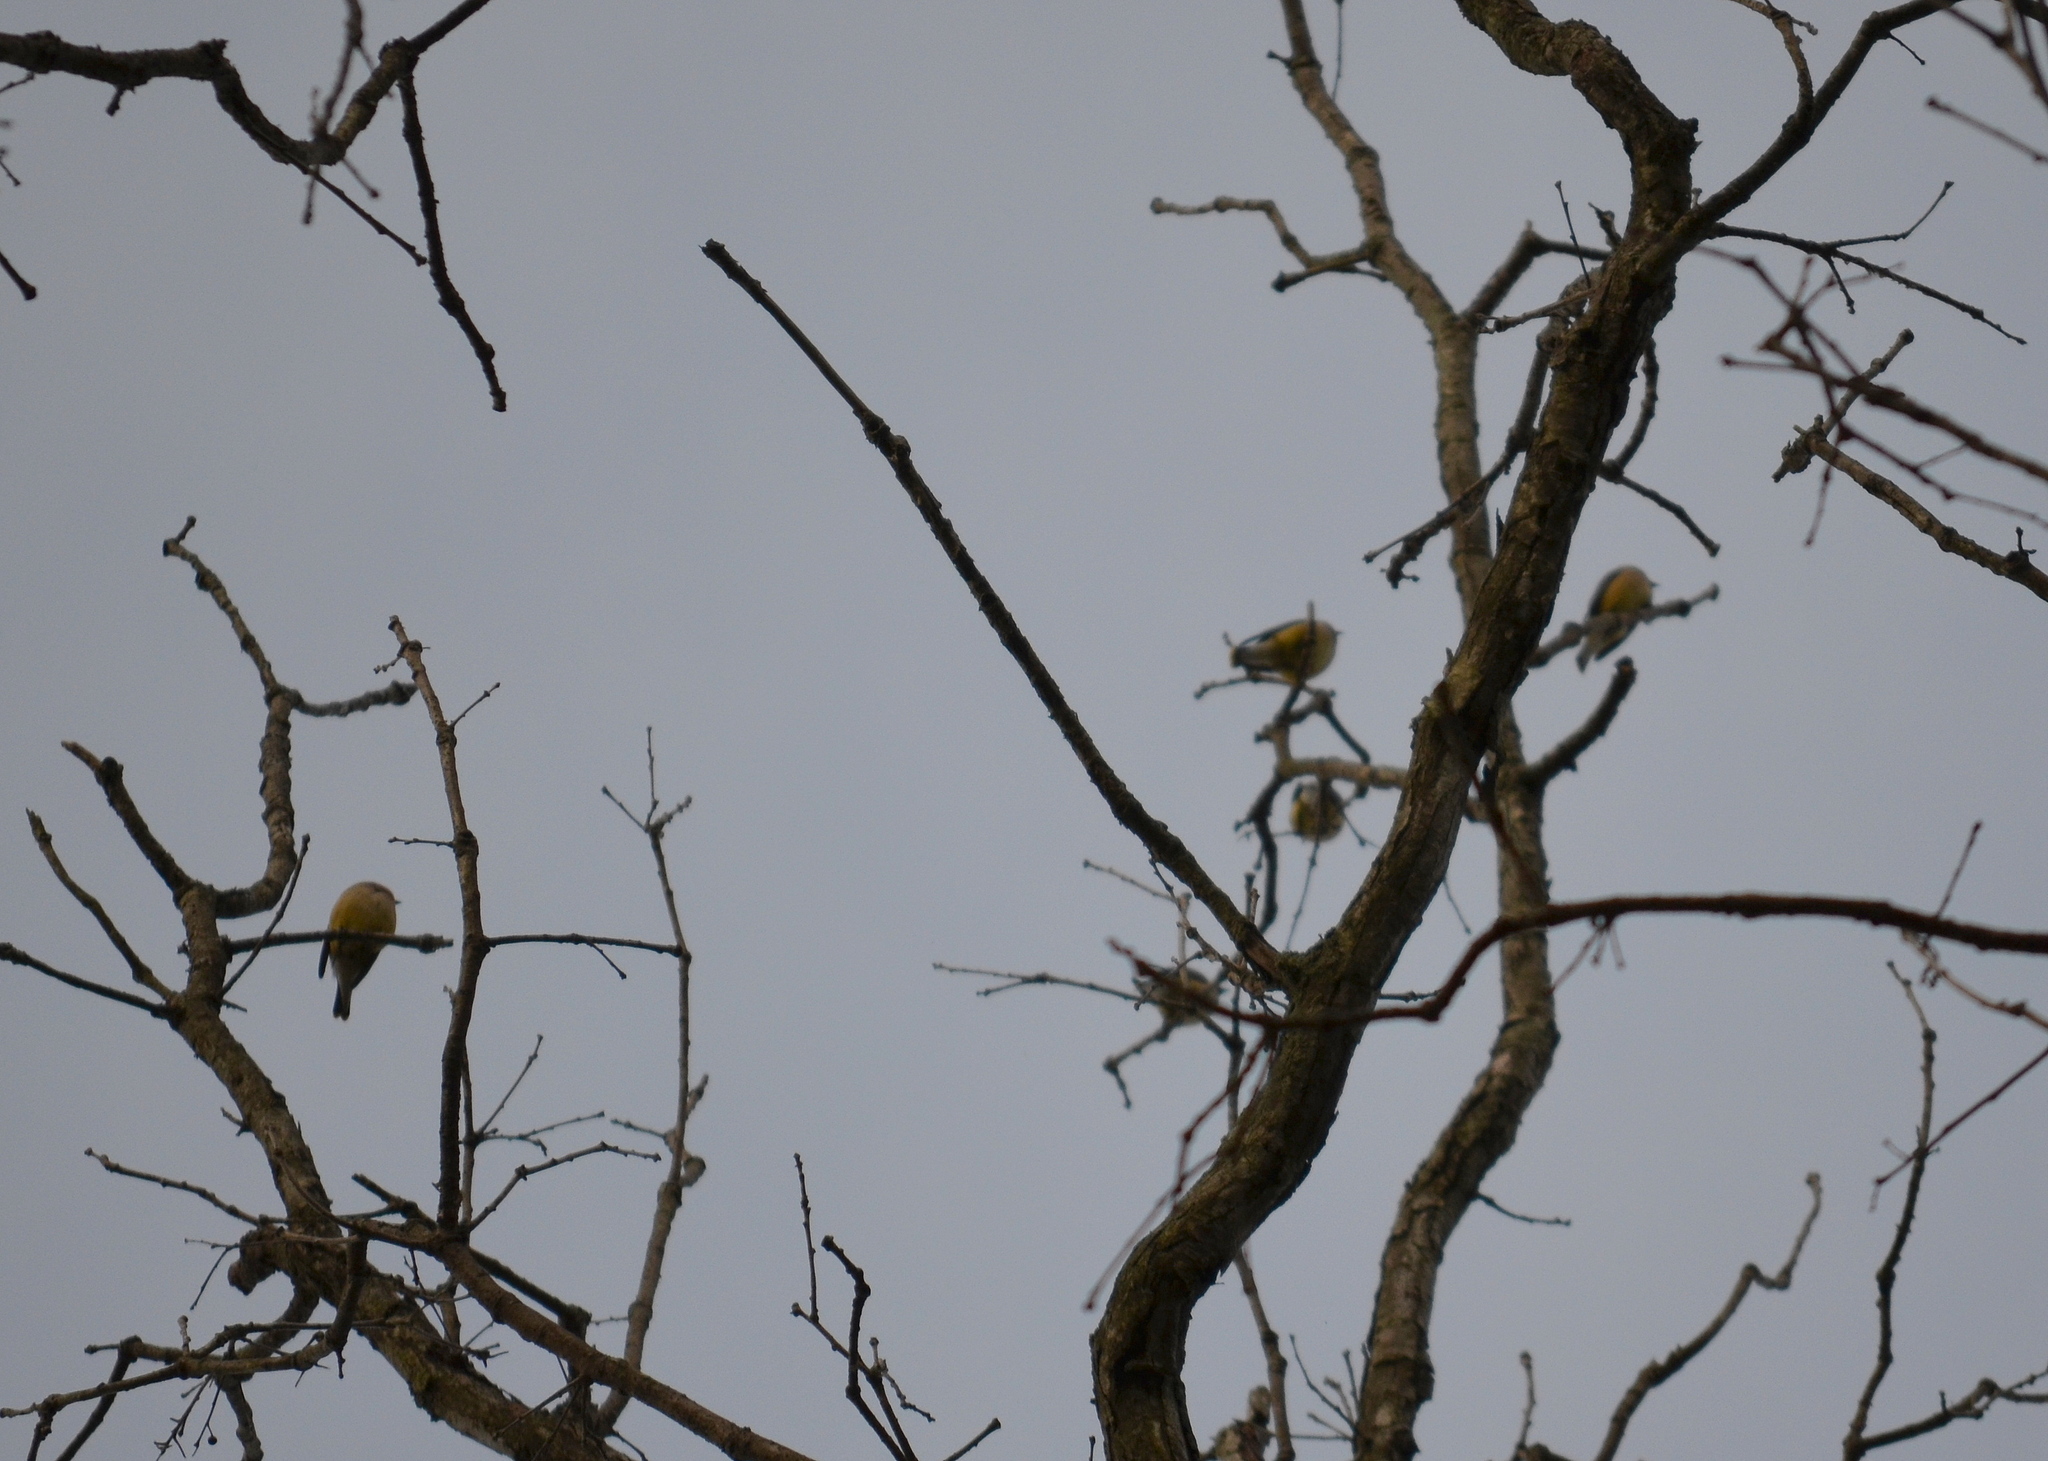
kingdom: Animalia
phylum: Chordata
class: Aves
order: Passeriformes
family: Fringillidae
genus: Spinus
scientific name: Spinus tristis
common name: American goldfinch
